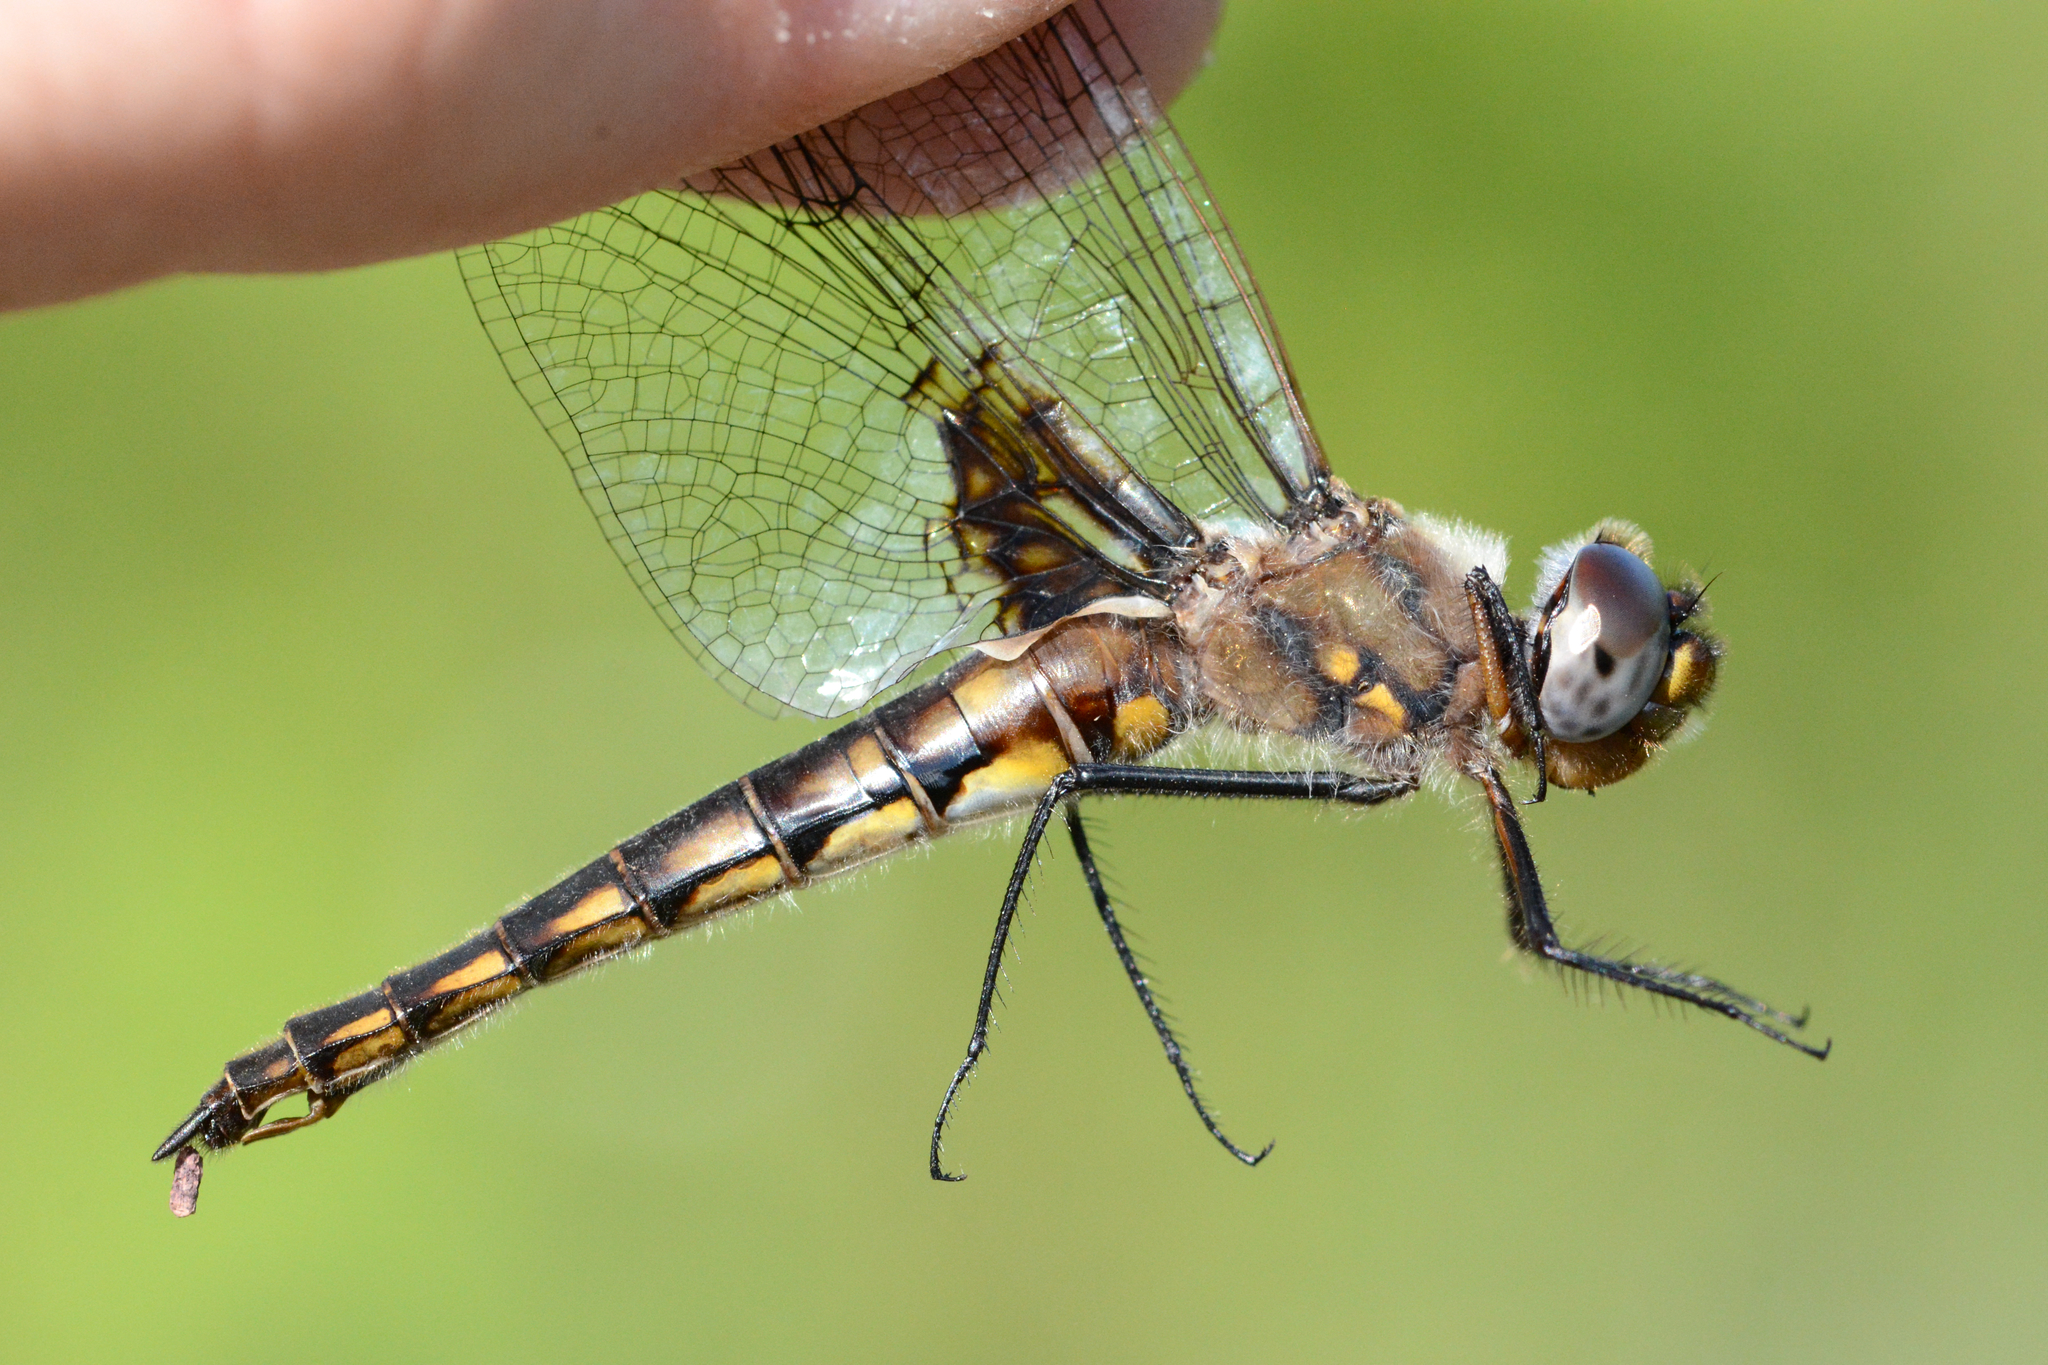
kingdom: Animalia
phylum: Arthropoda
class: Insecta
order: Odonata
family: Corduliidae
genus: Epitheca
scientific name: Epitheca cynosura
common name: Common baskettail
